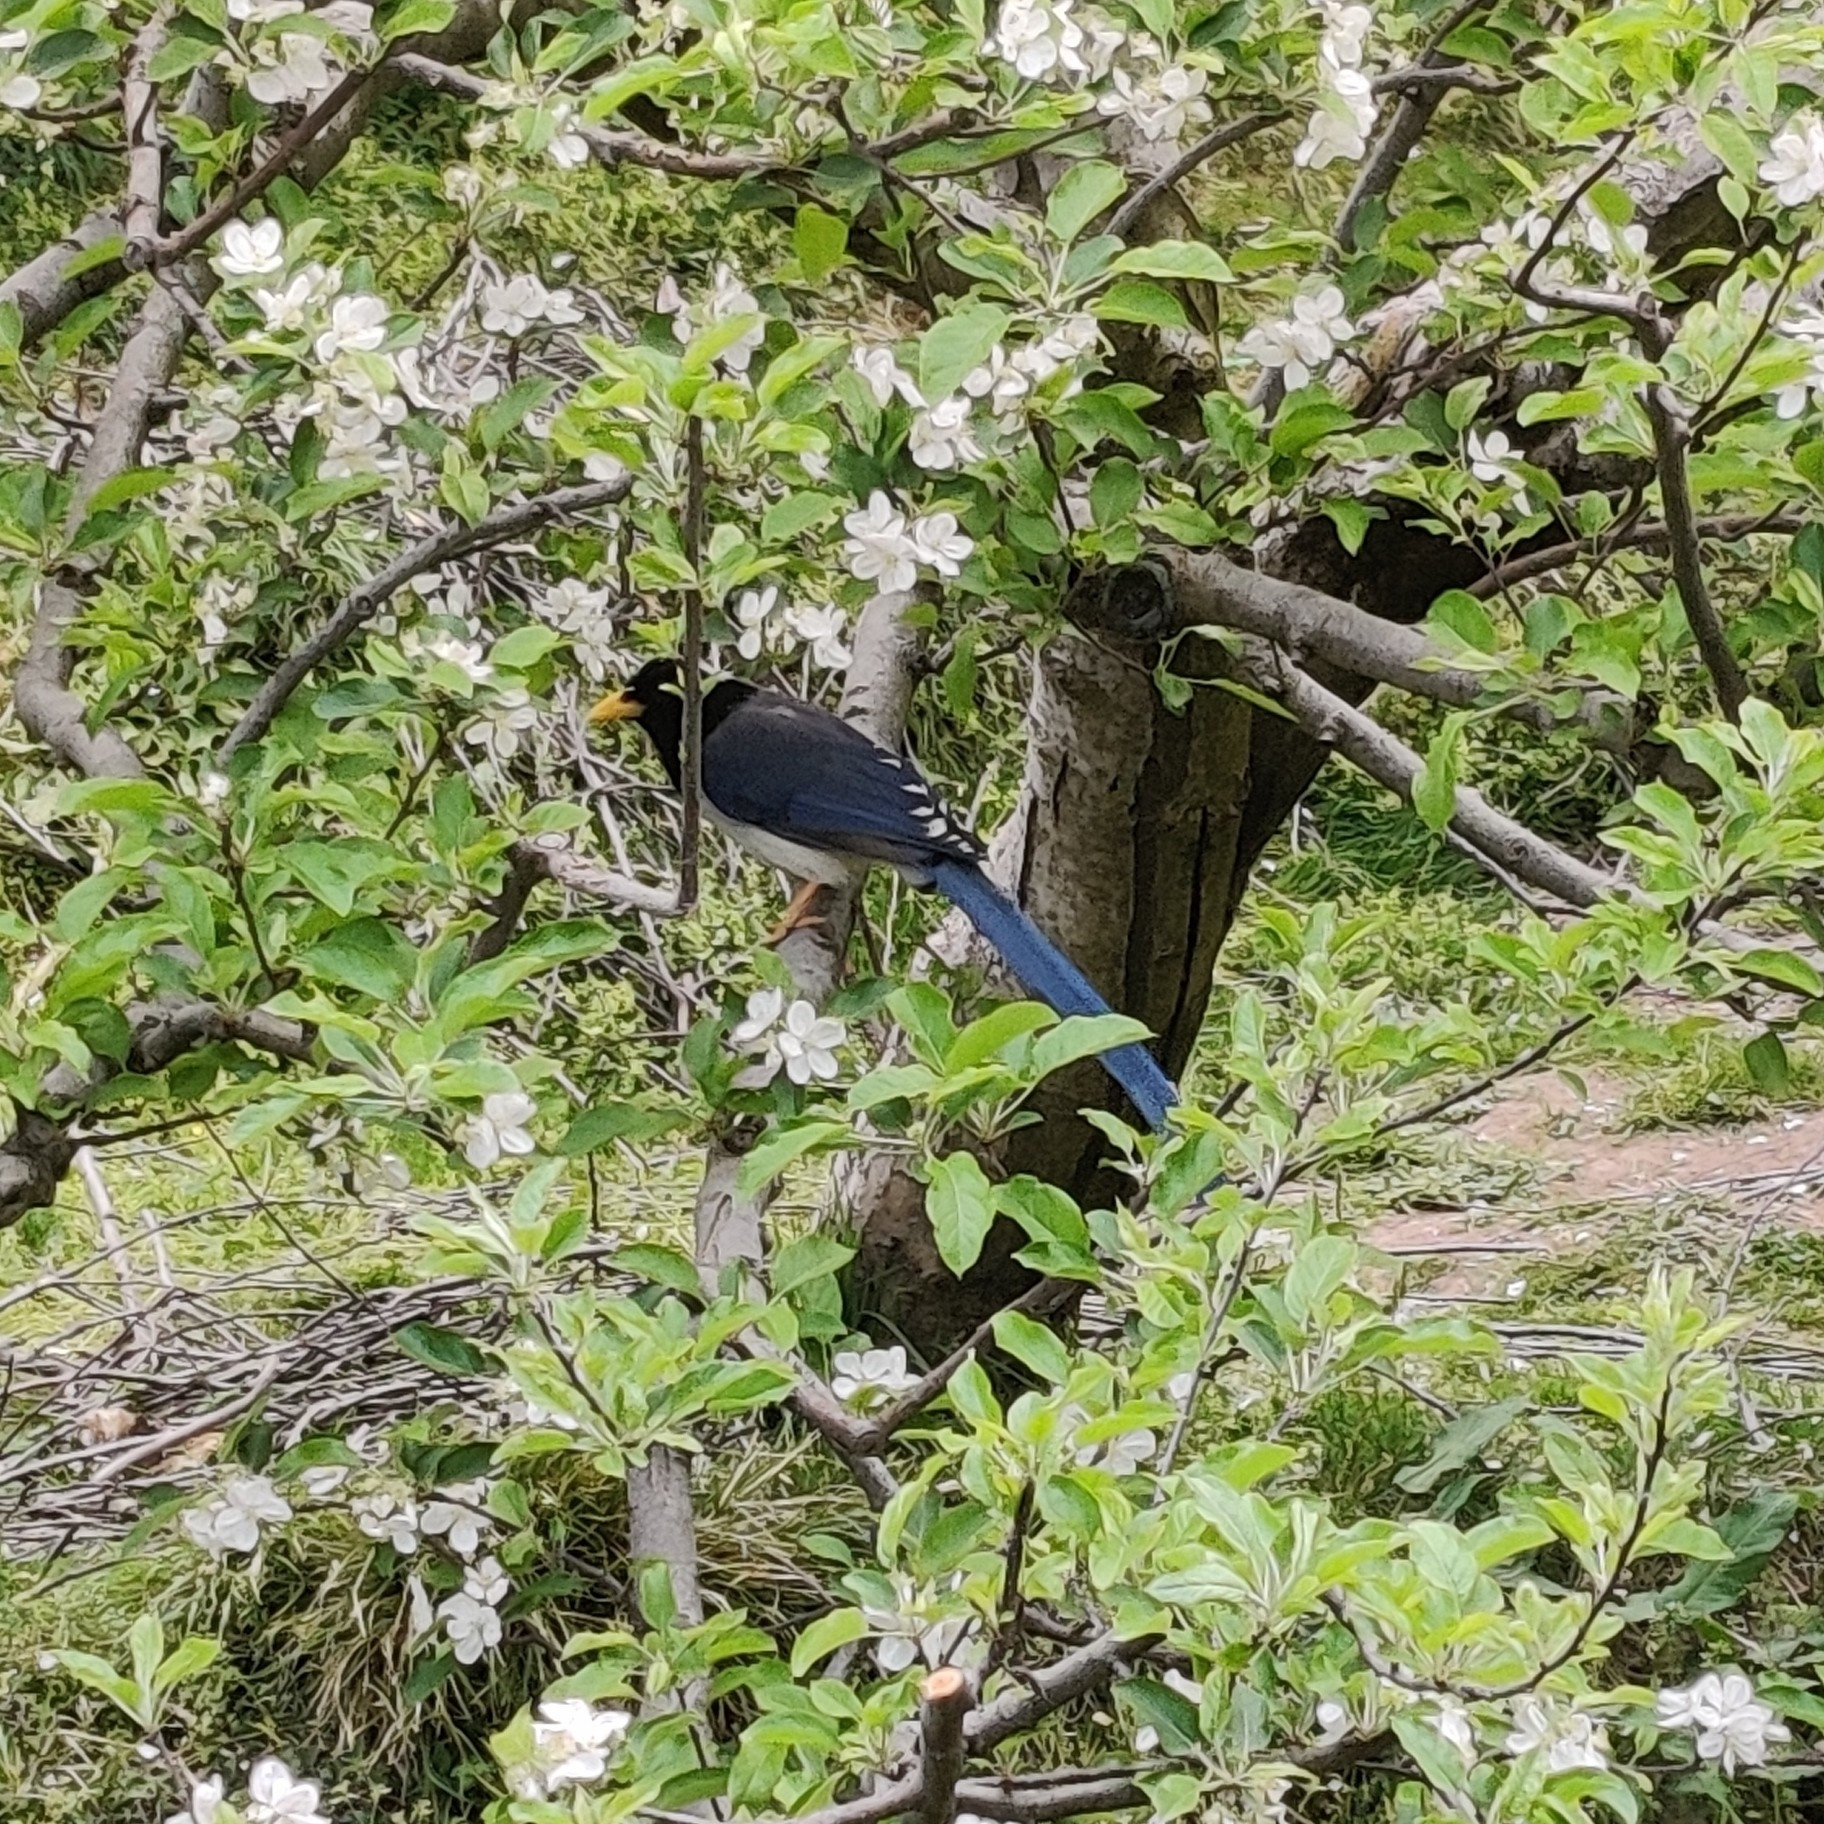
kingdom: Animalia
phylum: Chordata
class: Aves
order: Passeriformes
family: Corvidae
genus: Urocissa
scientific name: Urocissa flavirostris
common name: Yellow-billed blue magpie
